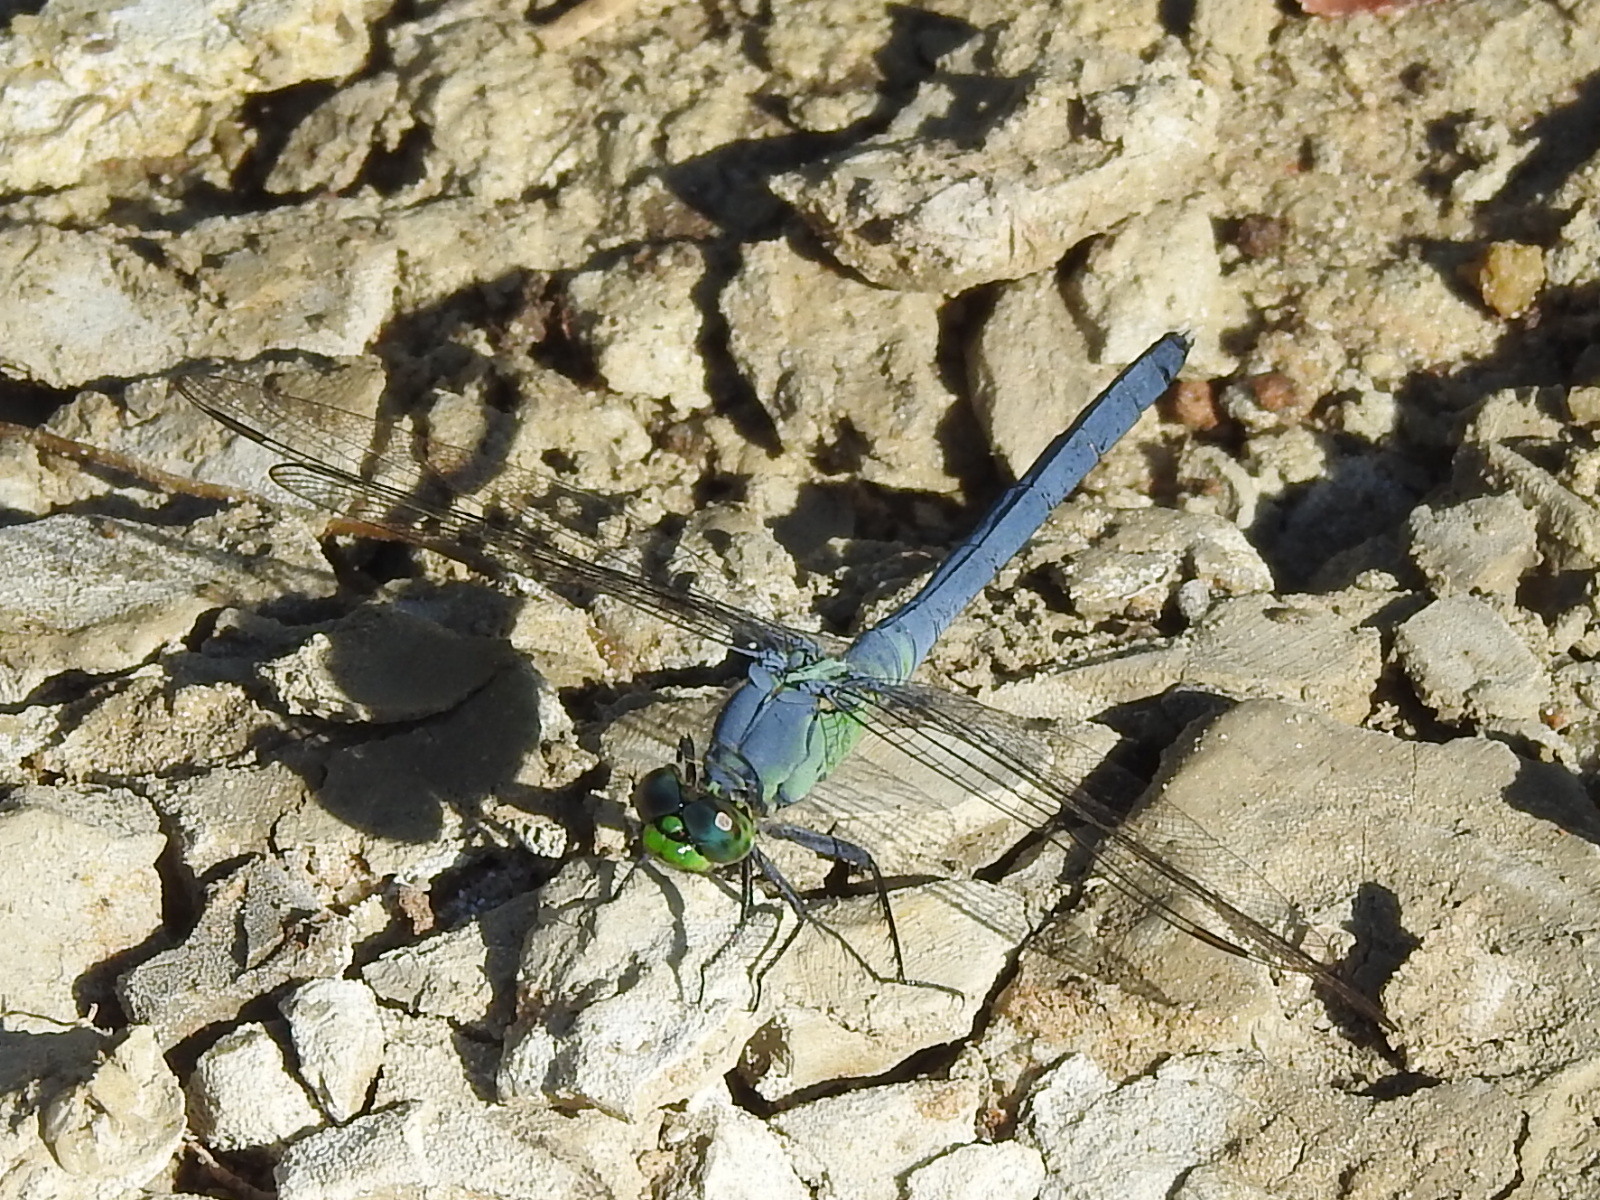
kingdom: Animalia
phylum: Arthropoda
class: Insecta
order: Odonata
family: Libellulidae
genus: Erythemis
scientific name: Erythemis simplicicollis
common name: Eastern pondhawk
